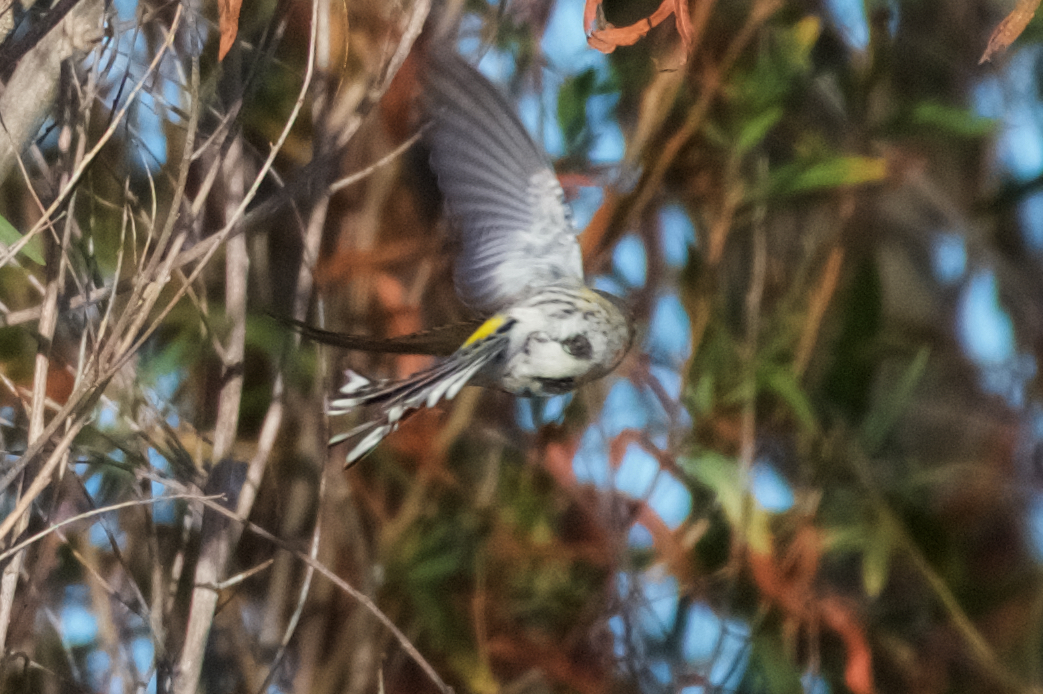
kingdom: Animalia
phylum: Chordata
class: Aves
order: Passeriformes
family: Parulidae
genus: Setophaga
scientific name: Setophaga coronata
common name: Myrtle warbler
